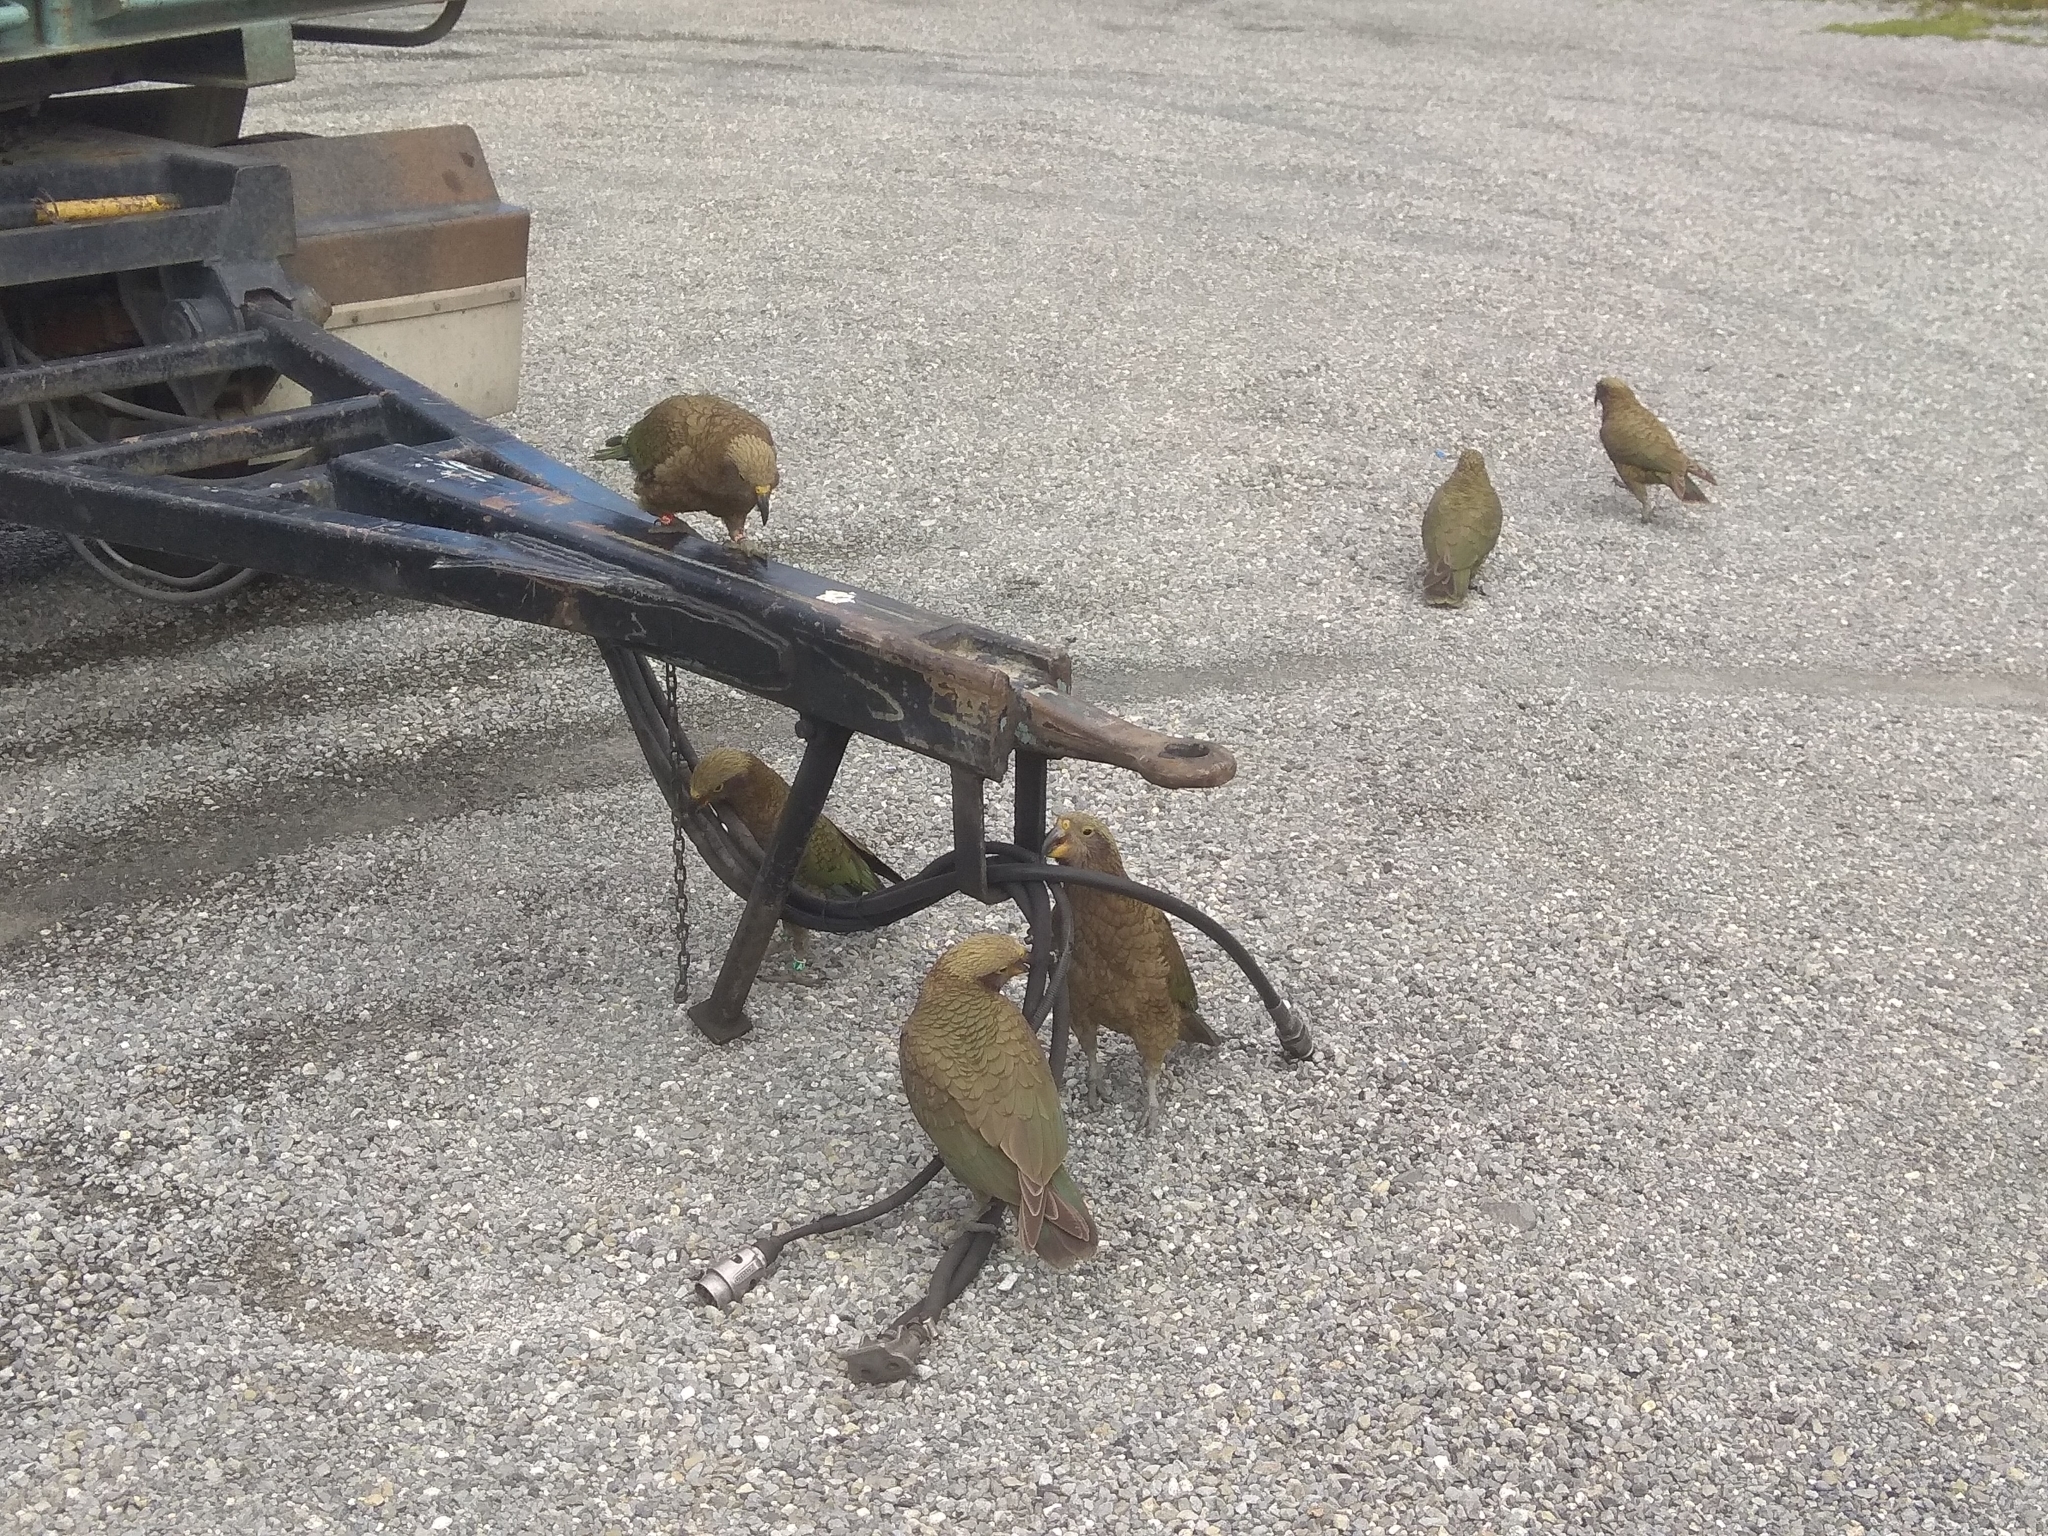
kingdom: Animalia
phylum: Chordata
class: Aves
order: Psittaciformes
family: Psittacidae
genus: Nestor
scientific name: Nestor notabilis
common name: Kea
